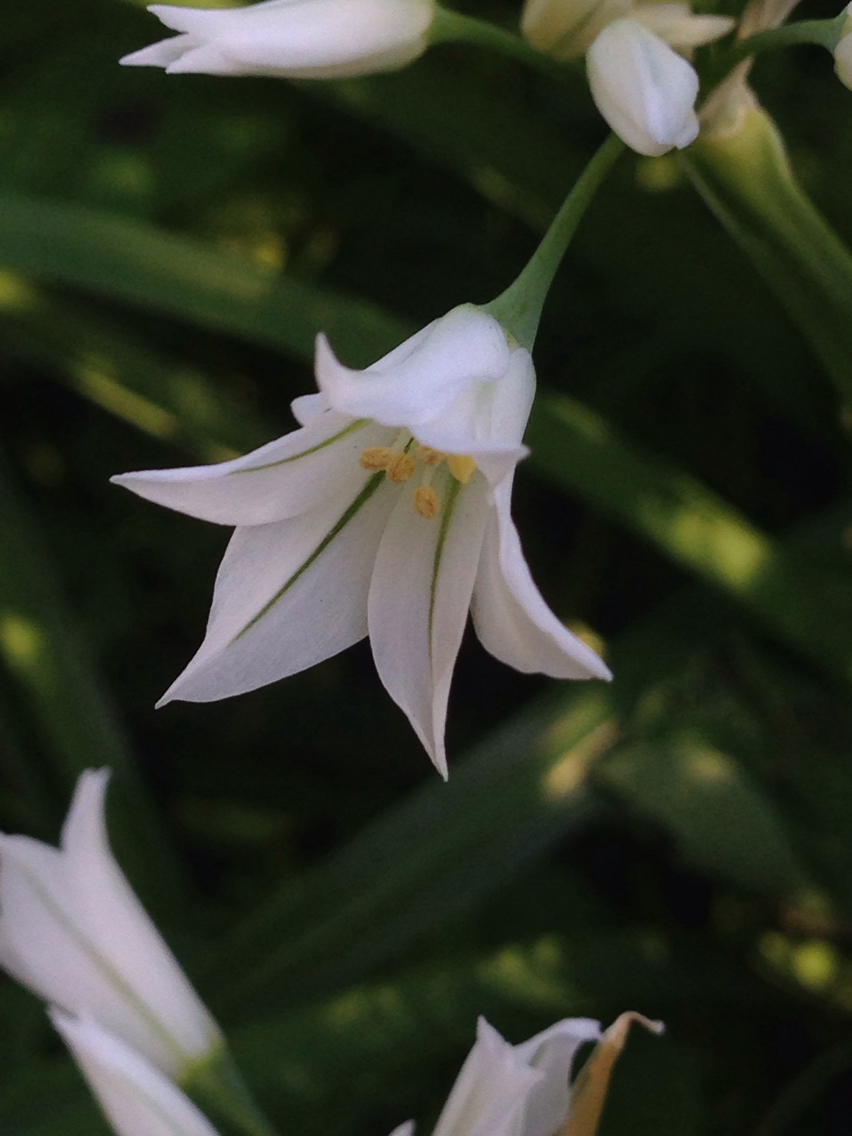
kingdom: Plantae
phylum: Tracheophyta
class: Liliopsida
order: Asparagales
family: Amaryllidaceae
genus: Allium
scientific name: Allium triquetrum
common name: Three-cornered garlic
